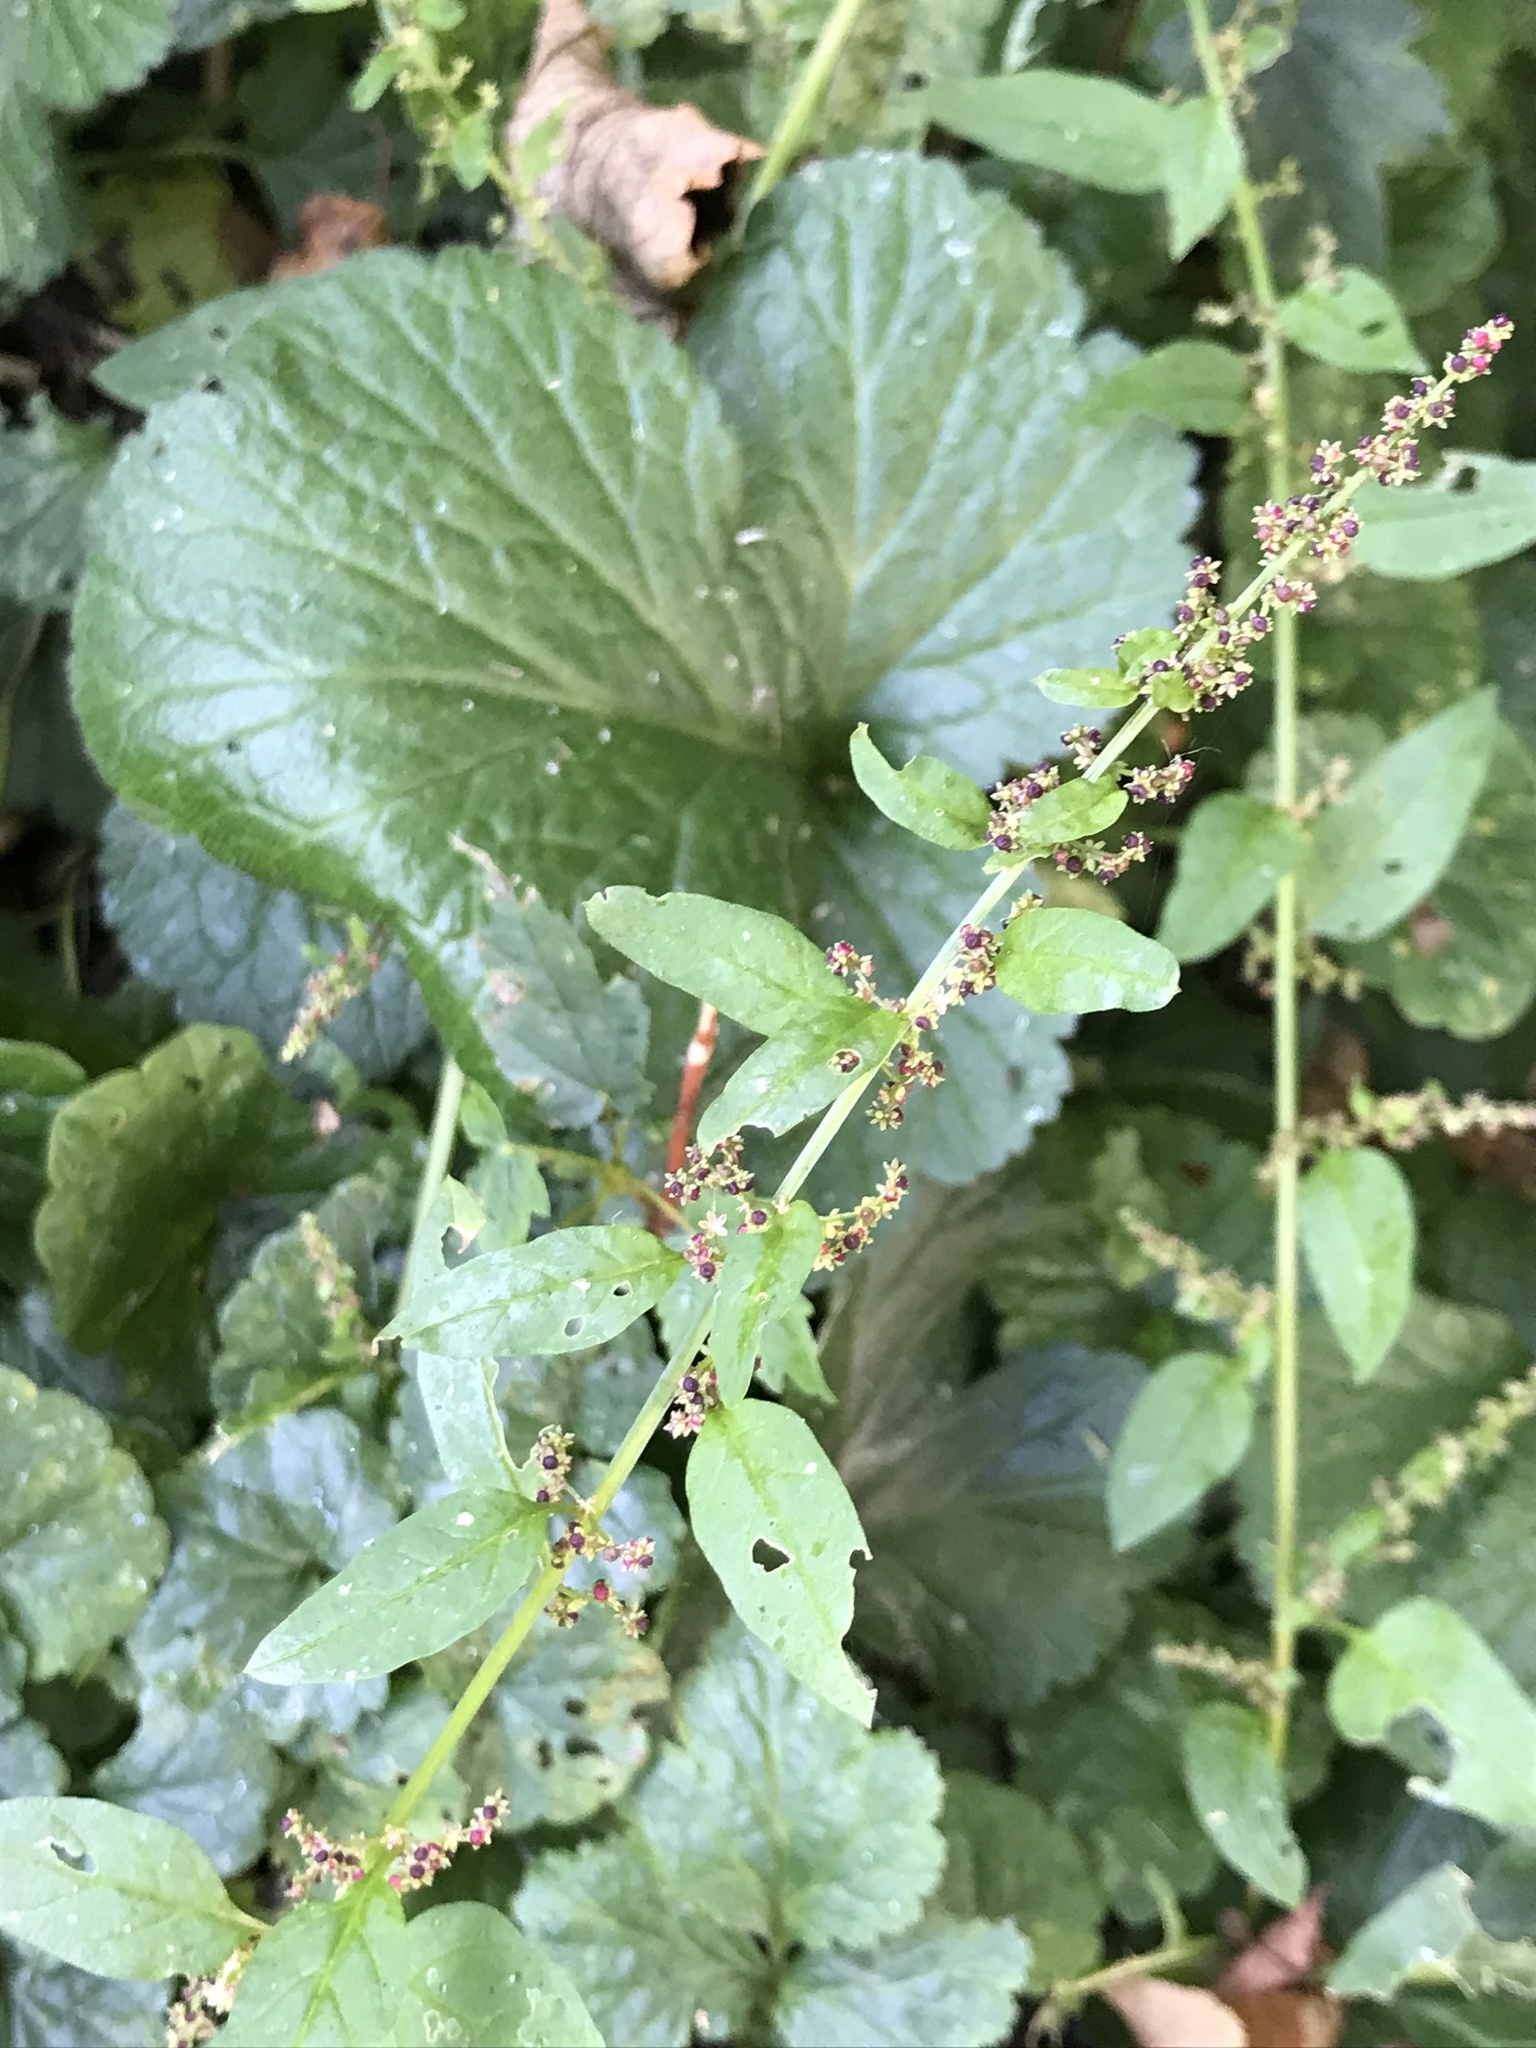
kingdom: Plantae
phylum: Tracheophyta
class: Magnoliopsida
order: Caryophyllales
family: Amaranthaceae
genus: Lipandra
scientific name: Lipandra polysperma
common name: Many-seed goosefoot
